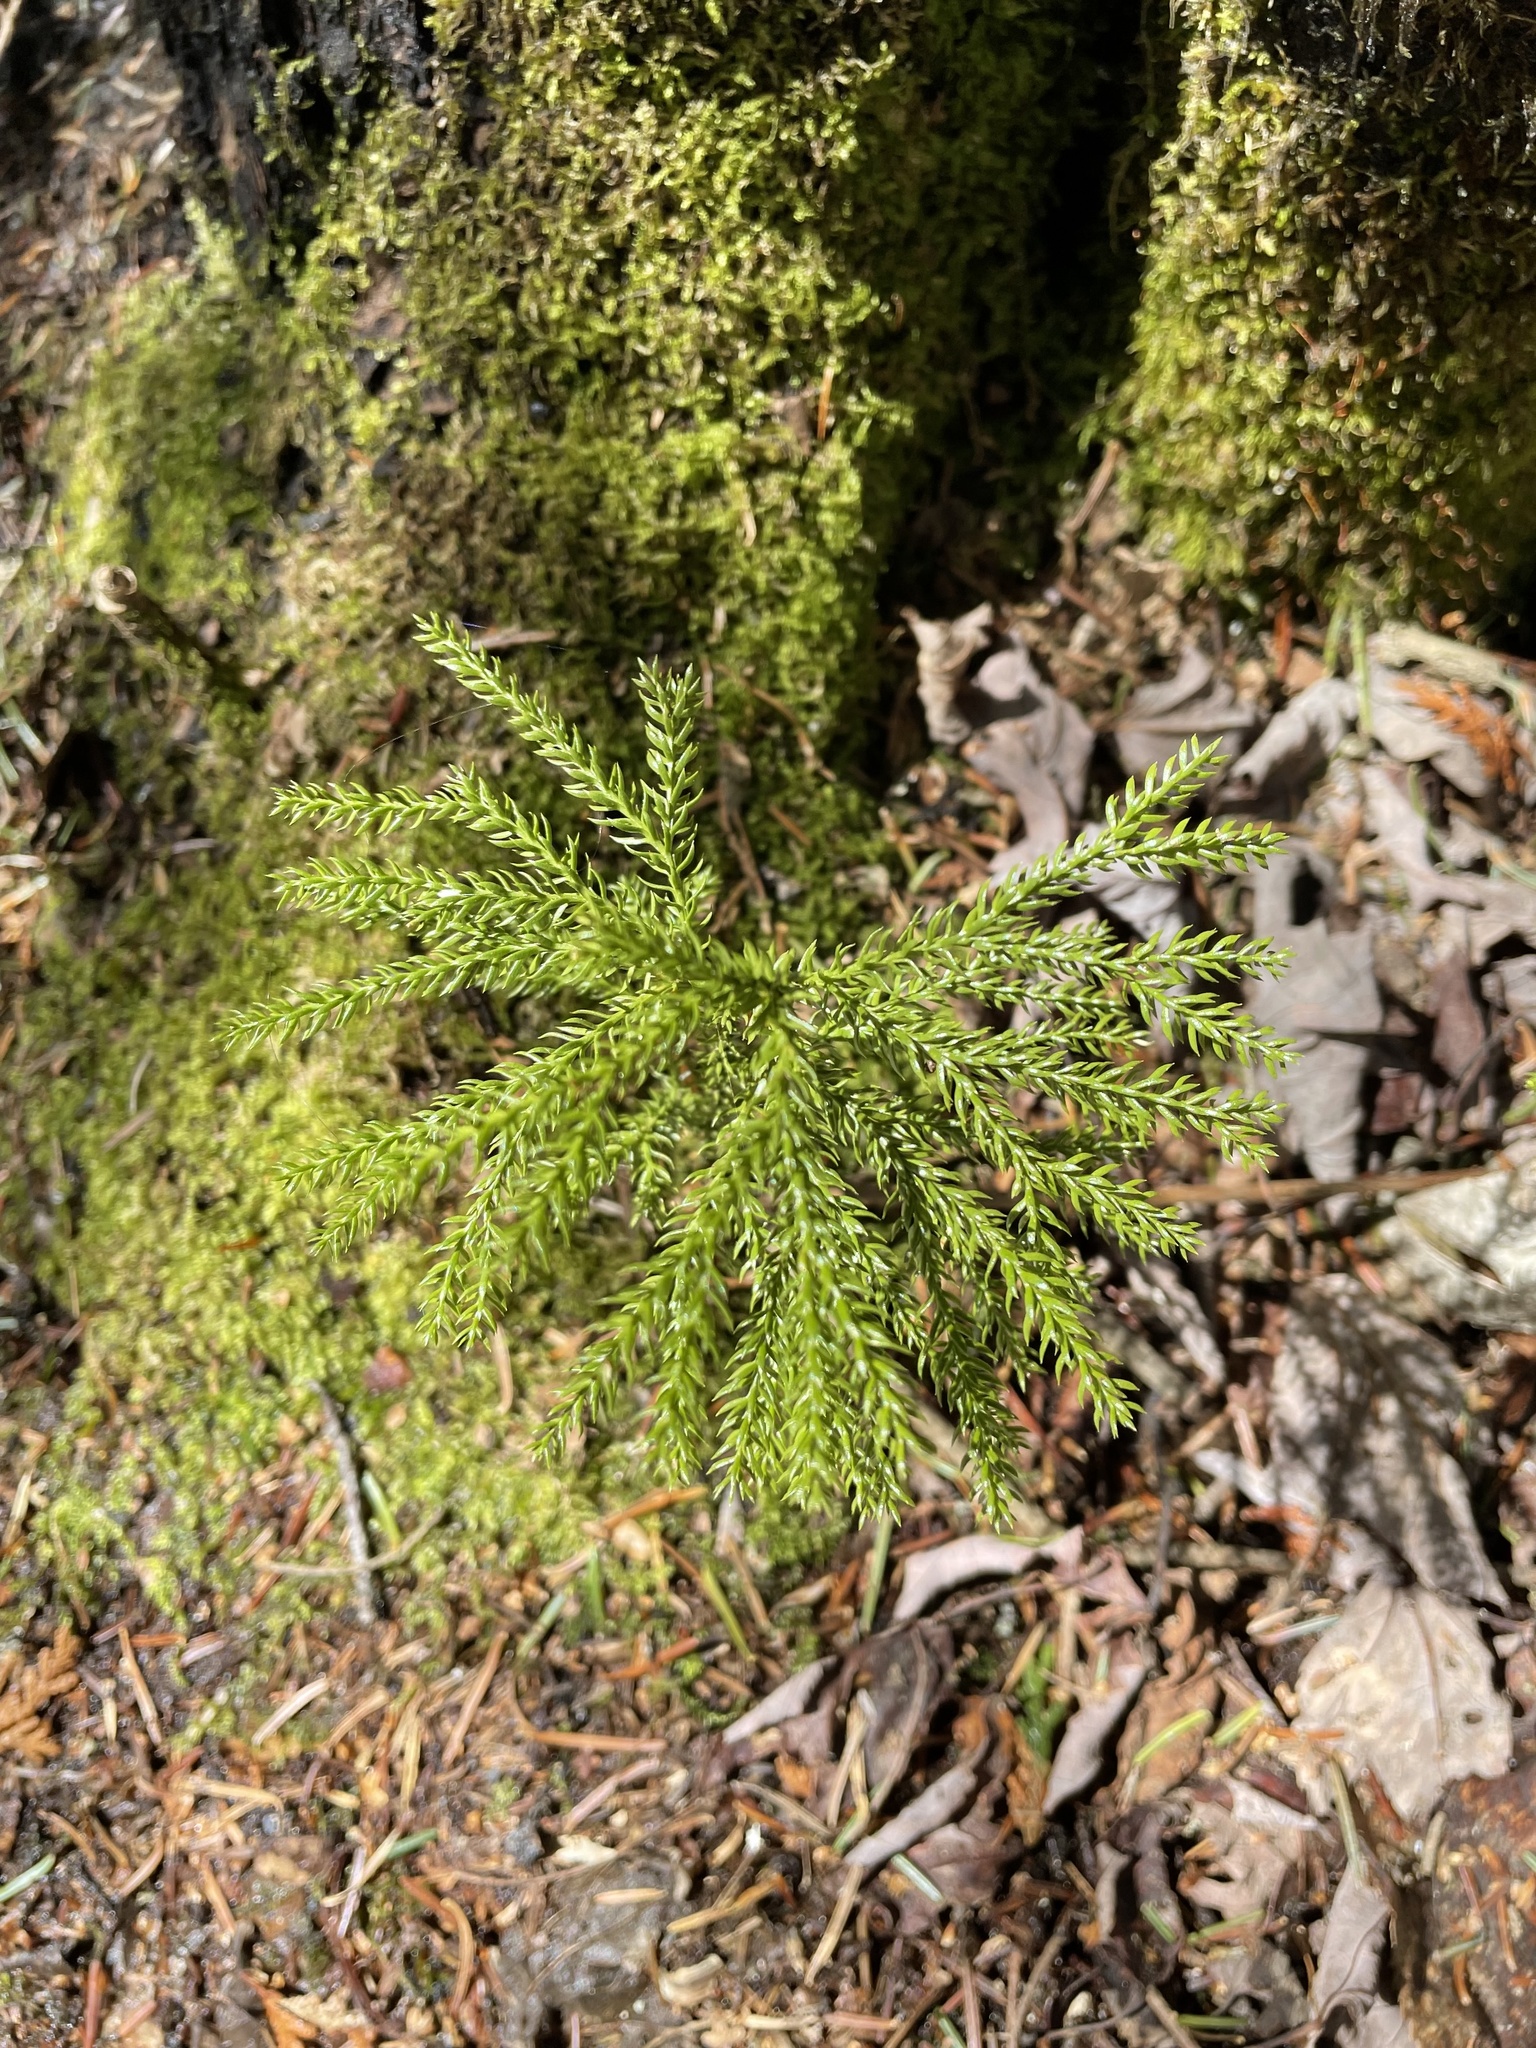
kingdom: Plantae
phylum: Tracheophyta
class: Lycopodiopsida
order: Lycopodiales
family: Lycopodiaceae
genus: Dendrolycopodium
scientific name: Dendrolycopodium dendroideum
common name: Northern tree-clubmoss
